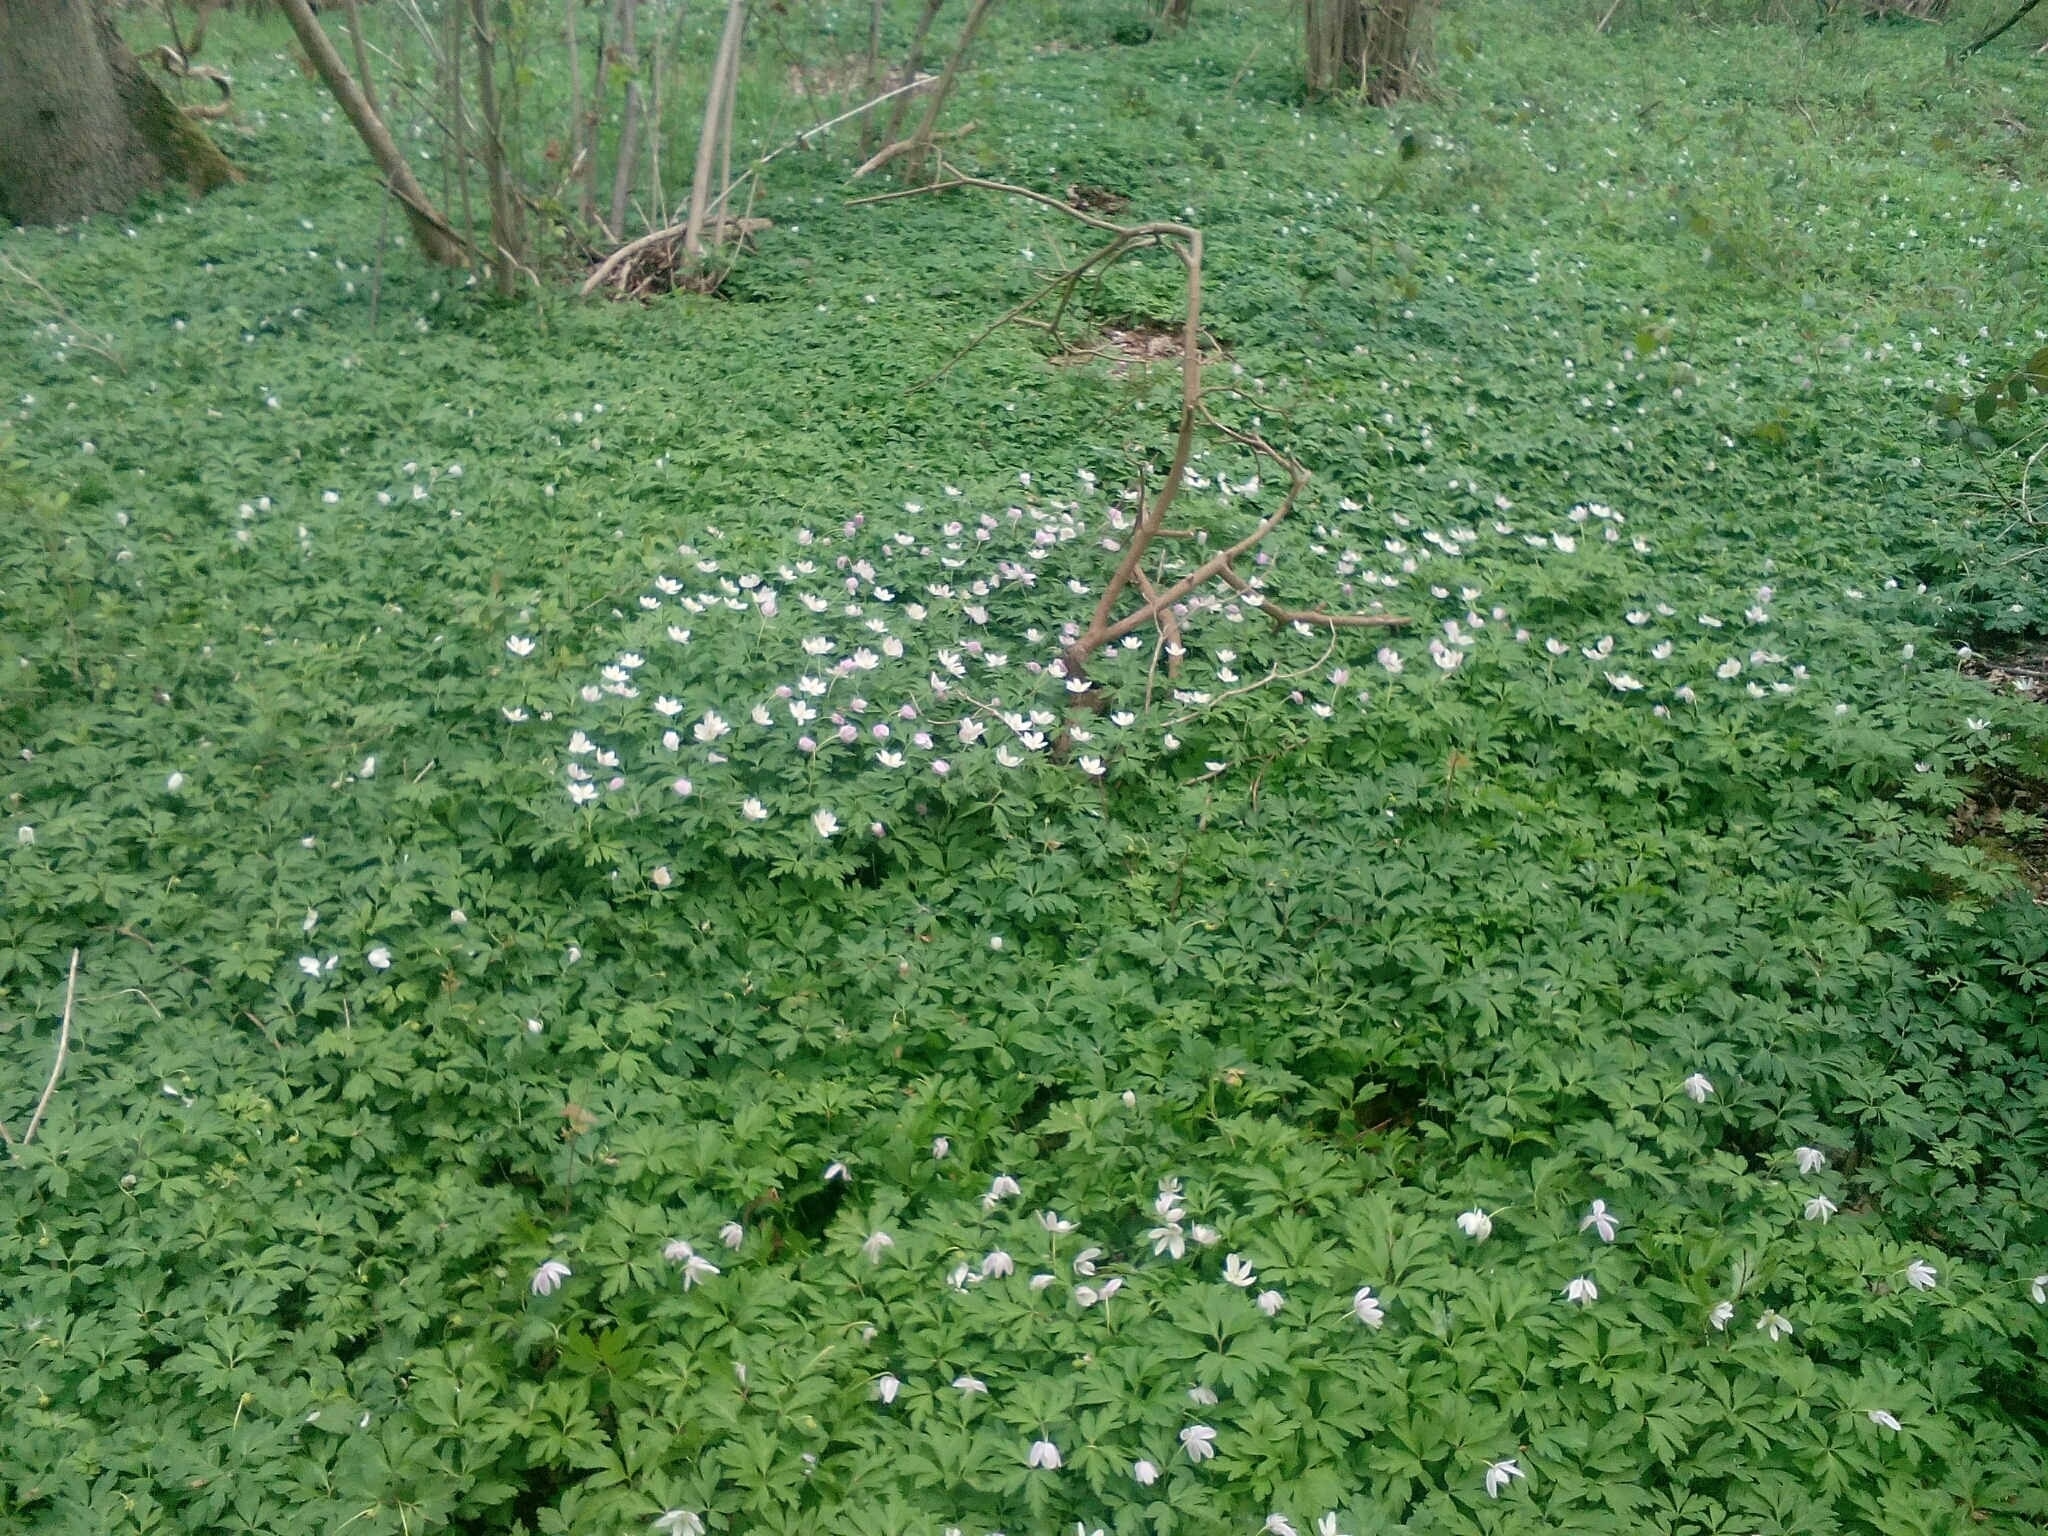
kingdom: Plantae
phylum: Tracheophyta
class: Magnoliopsida
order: Ranunculales
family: Ranunculaceae
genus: Anemone
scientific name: Anemone nemorosa
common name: Wood anemone
